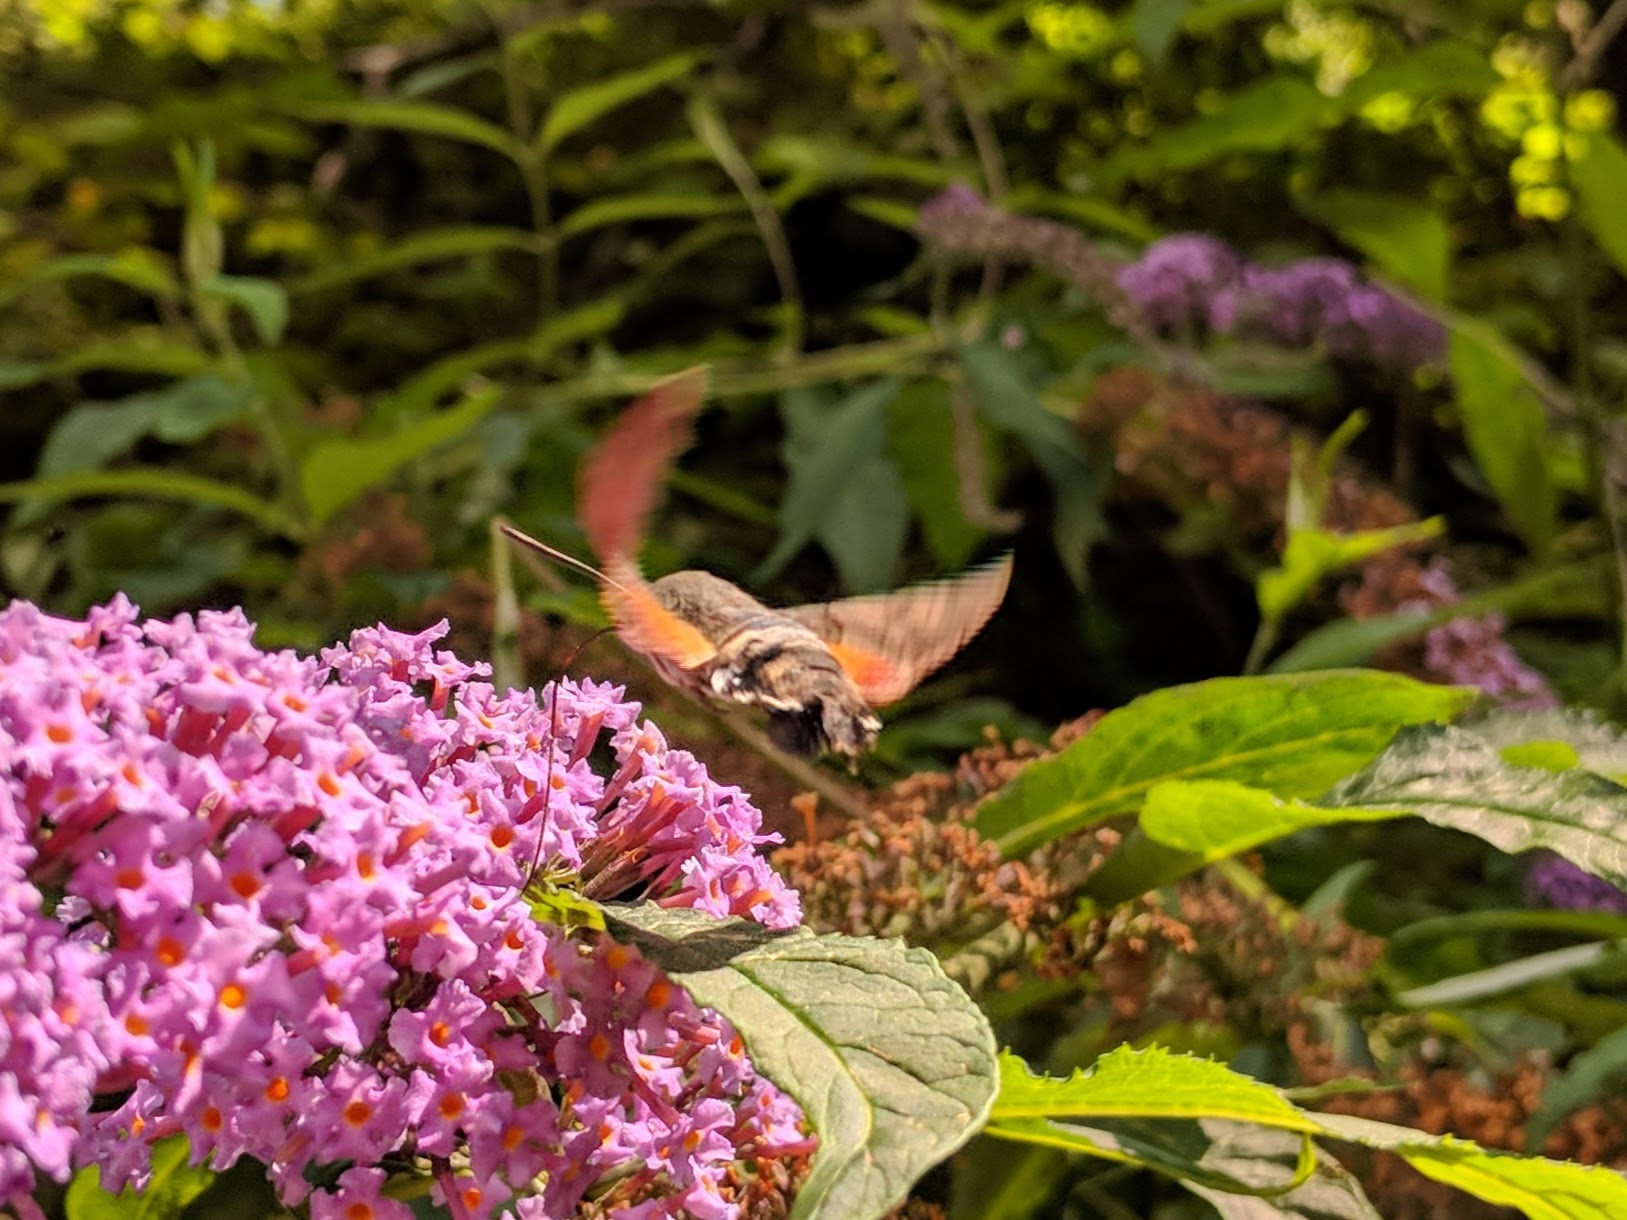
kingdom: Animalia
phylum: Arthropoda
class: Insecta
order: Lepidoptera
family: Sphingidae
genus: Macroglossum
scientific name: Macroglossum stellatarum
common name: Humming-bird hawk-moth
